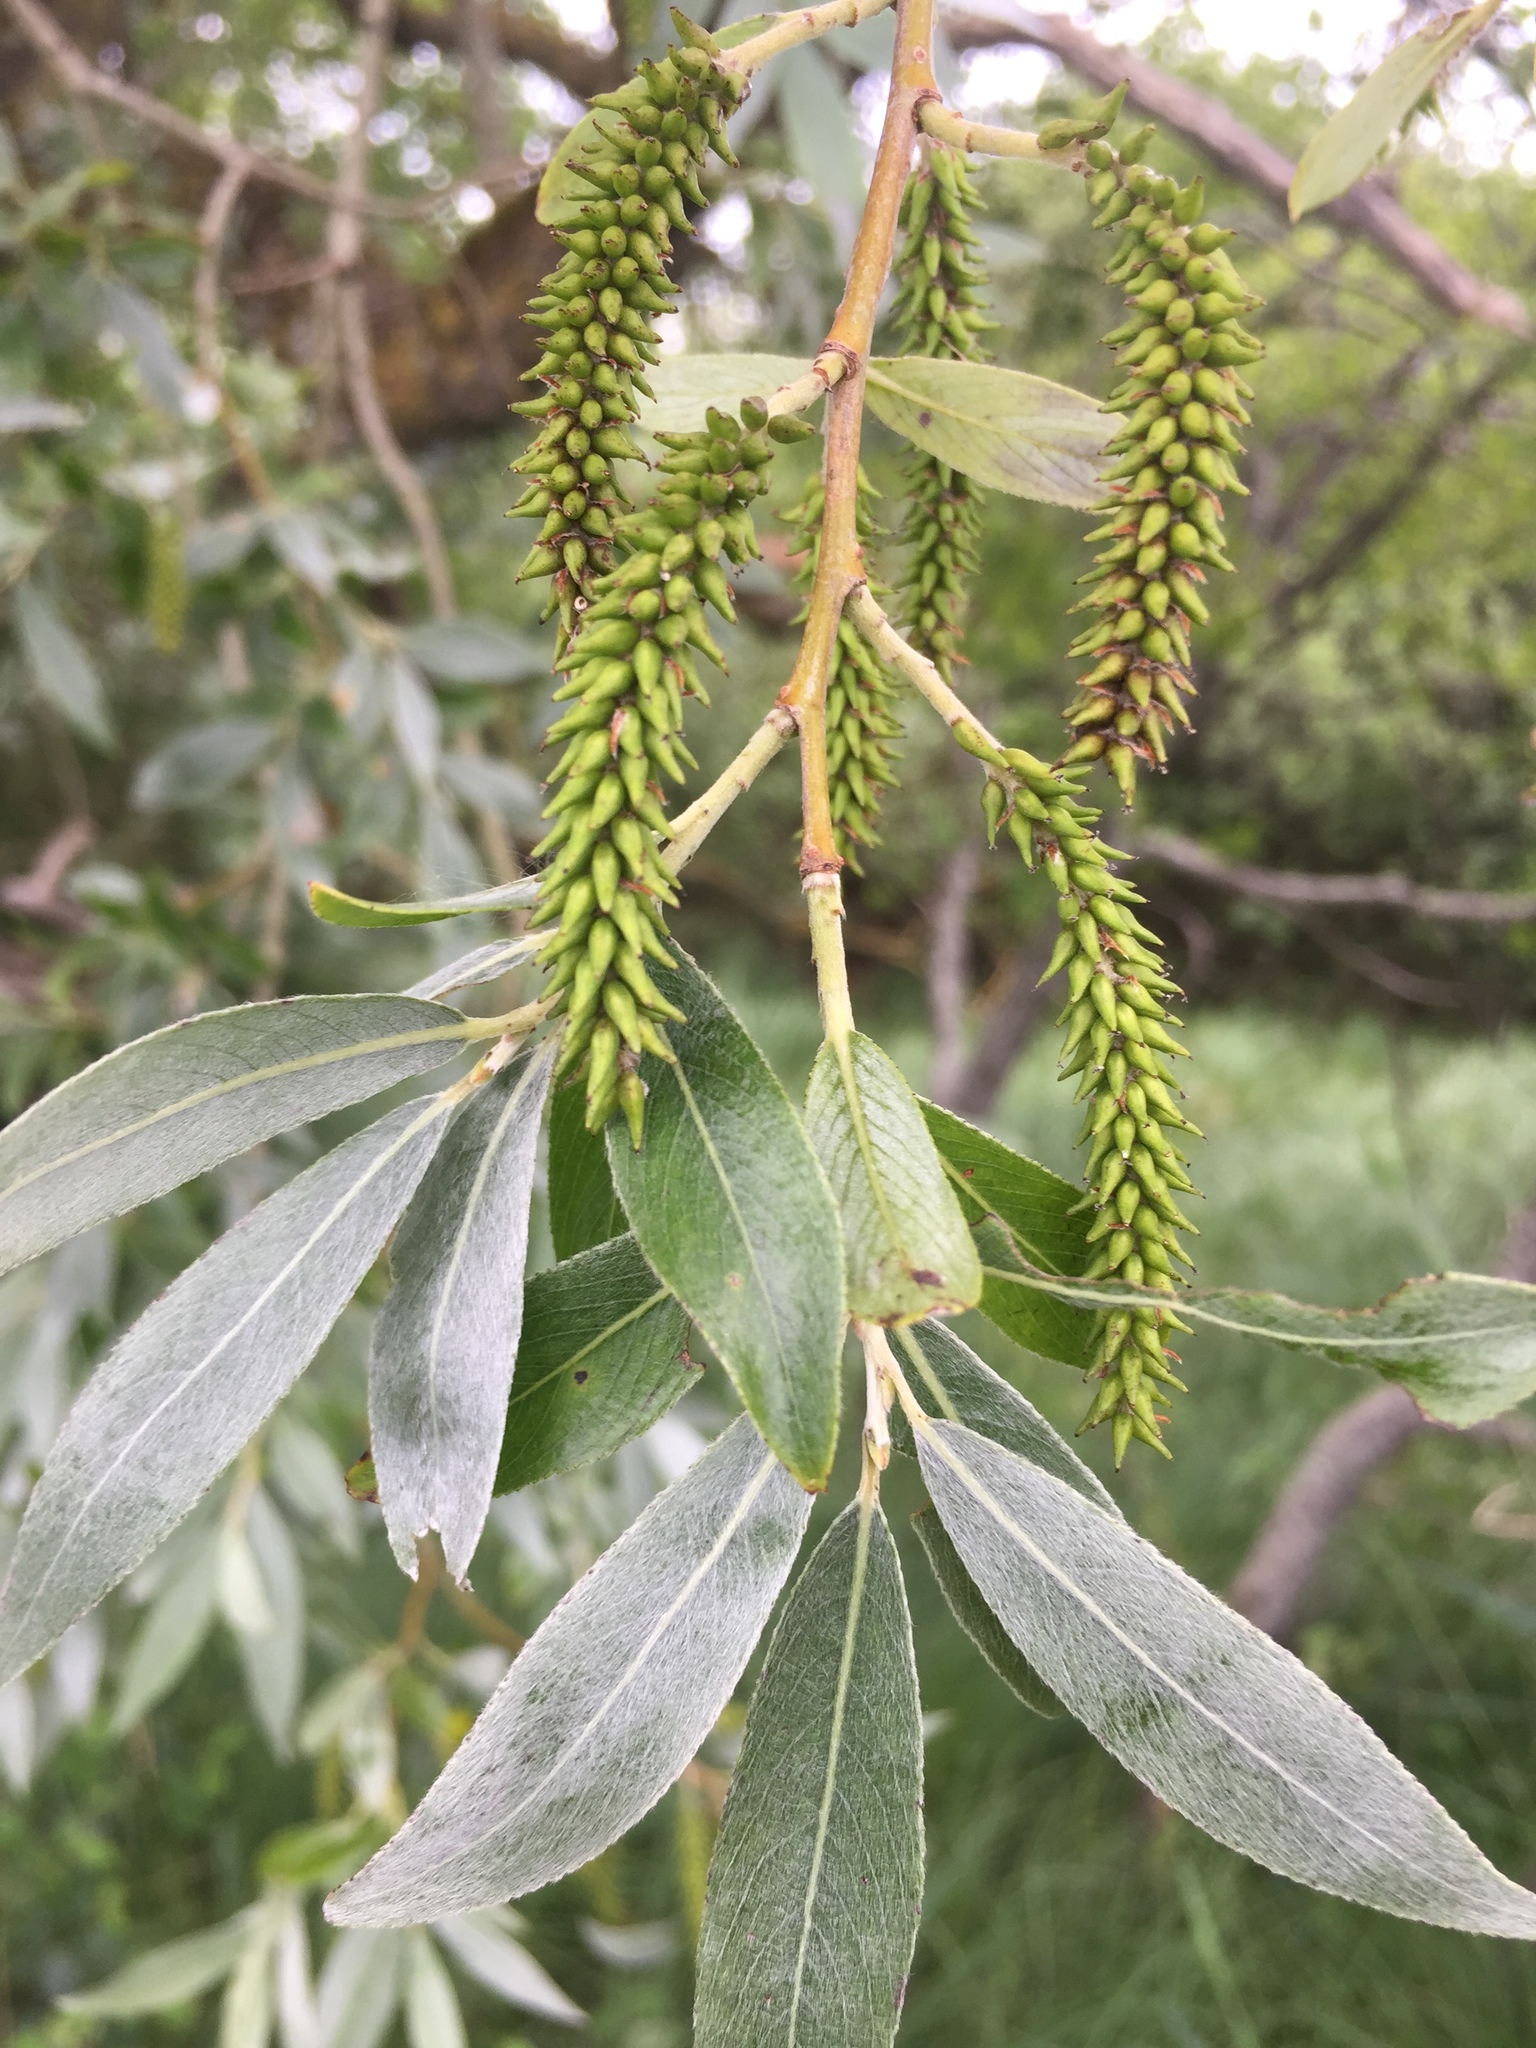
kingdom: Plantae
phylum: Tracheophyta
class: Magnoliopsida
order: Malpighiales
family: Salicaceae
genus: Salix
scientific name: Salix alba
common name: White willow
